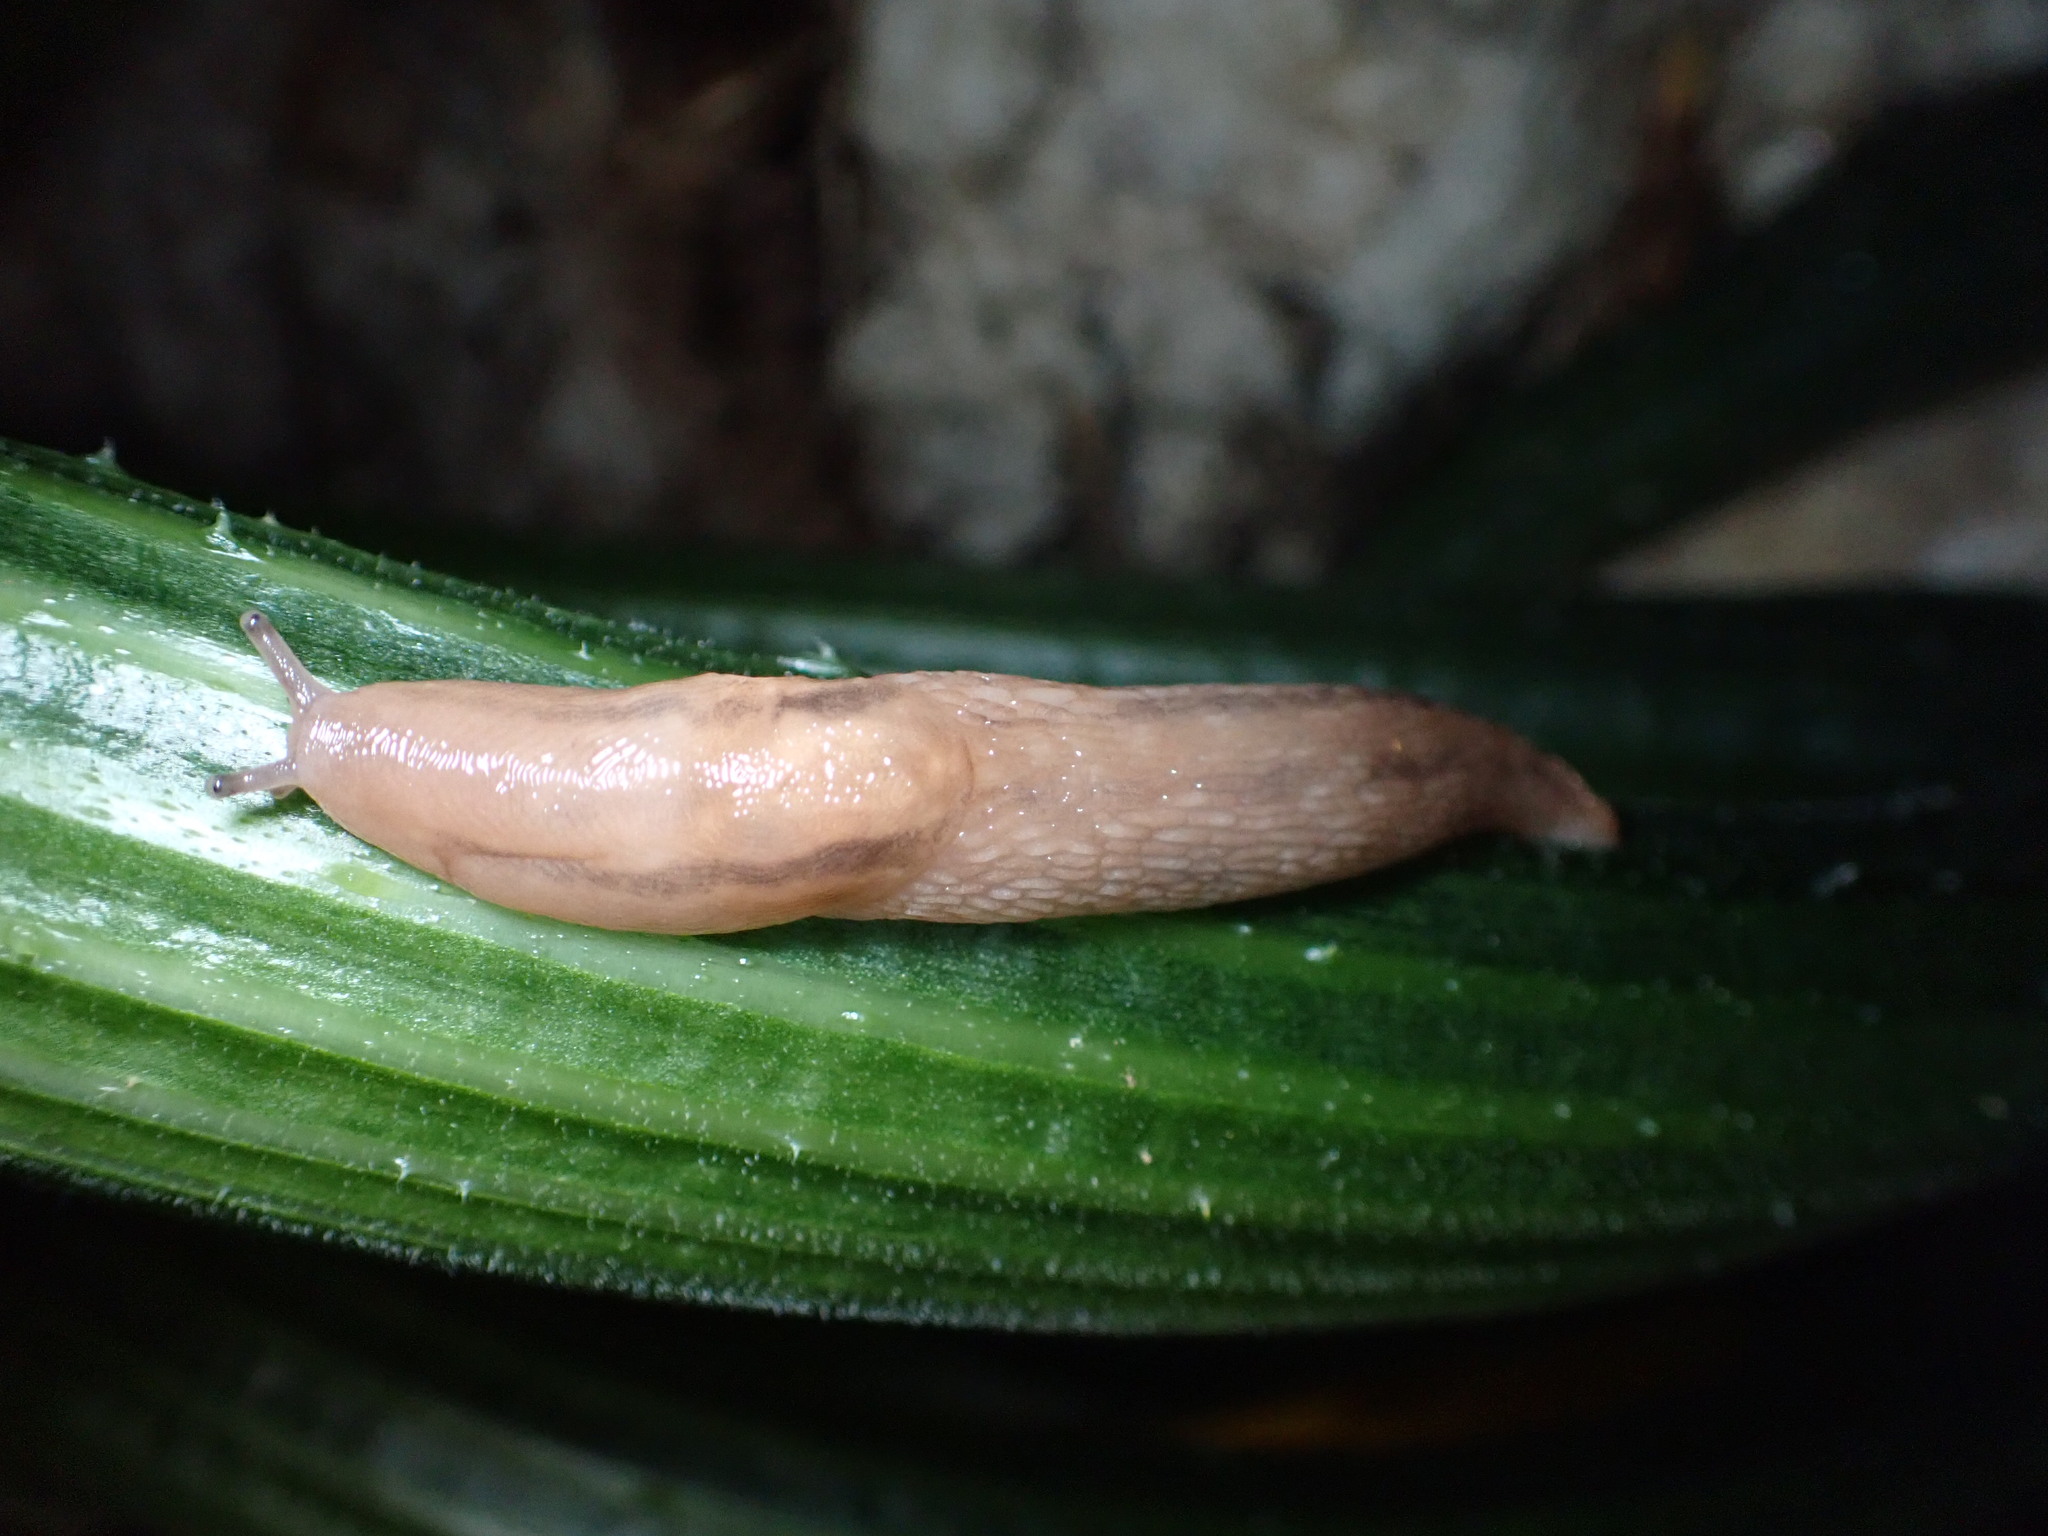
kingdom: Animalia
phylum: Mollusca
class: Gastropoda
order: Stylommatophora
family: Limacidae
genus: Ambigolimax
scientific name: Ambigolimax
